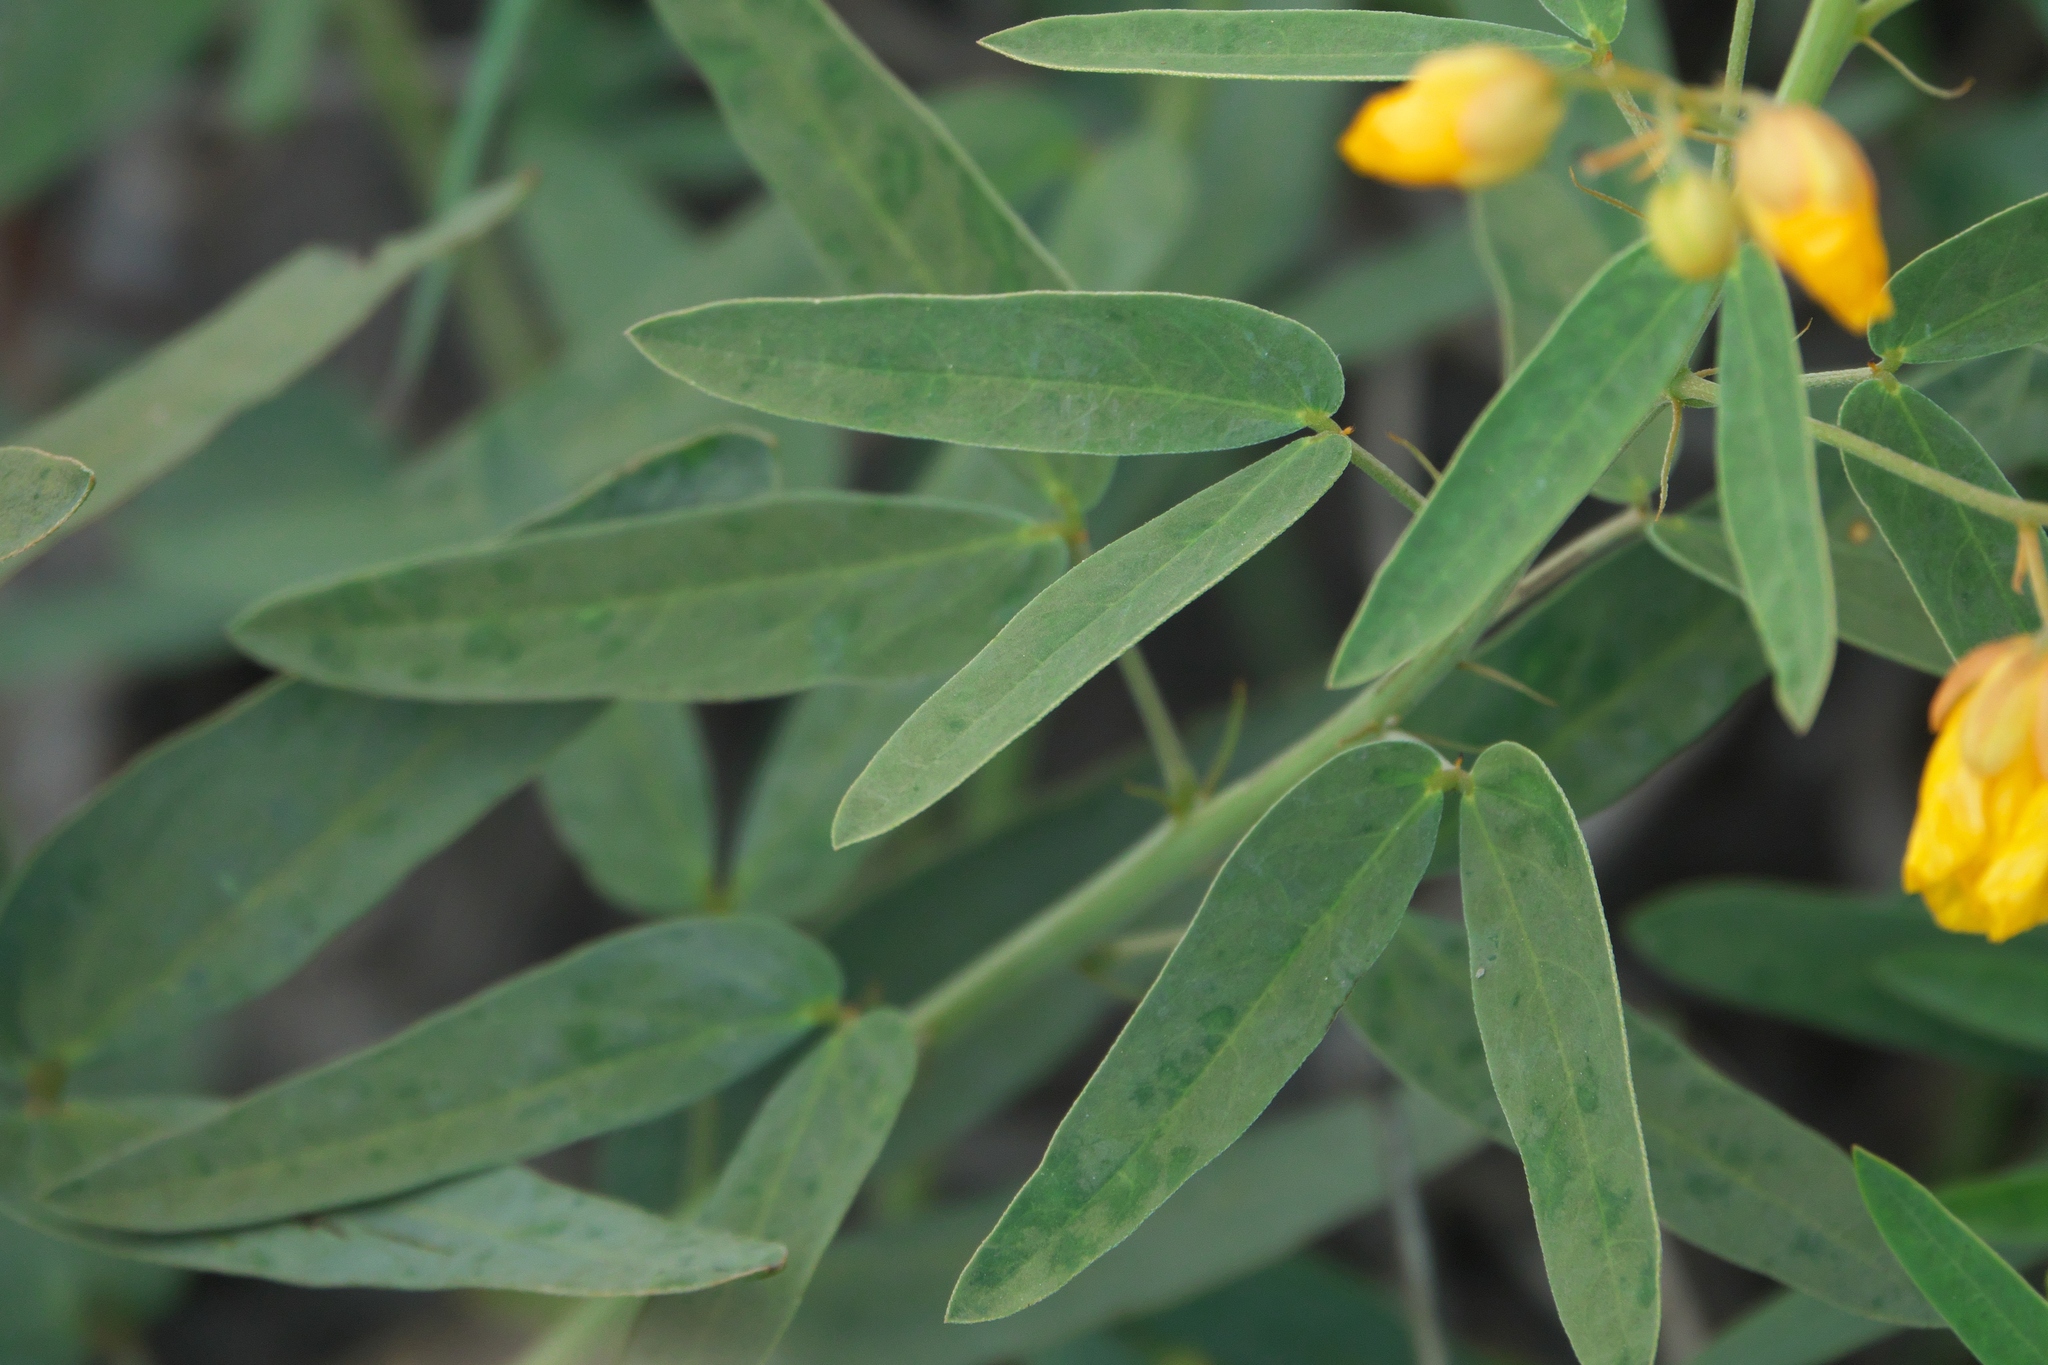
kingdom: Plantae
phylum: Tracheophyta
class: Magnoliopsida
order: Fabales
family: Fabaceae
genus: Senna
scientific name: Senna roemeriana
